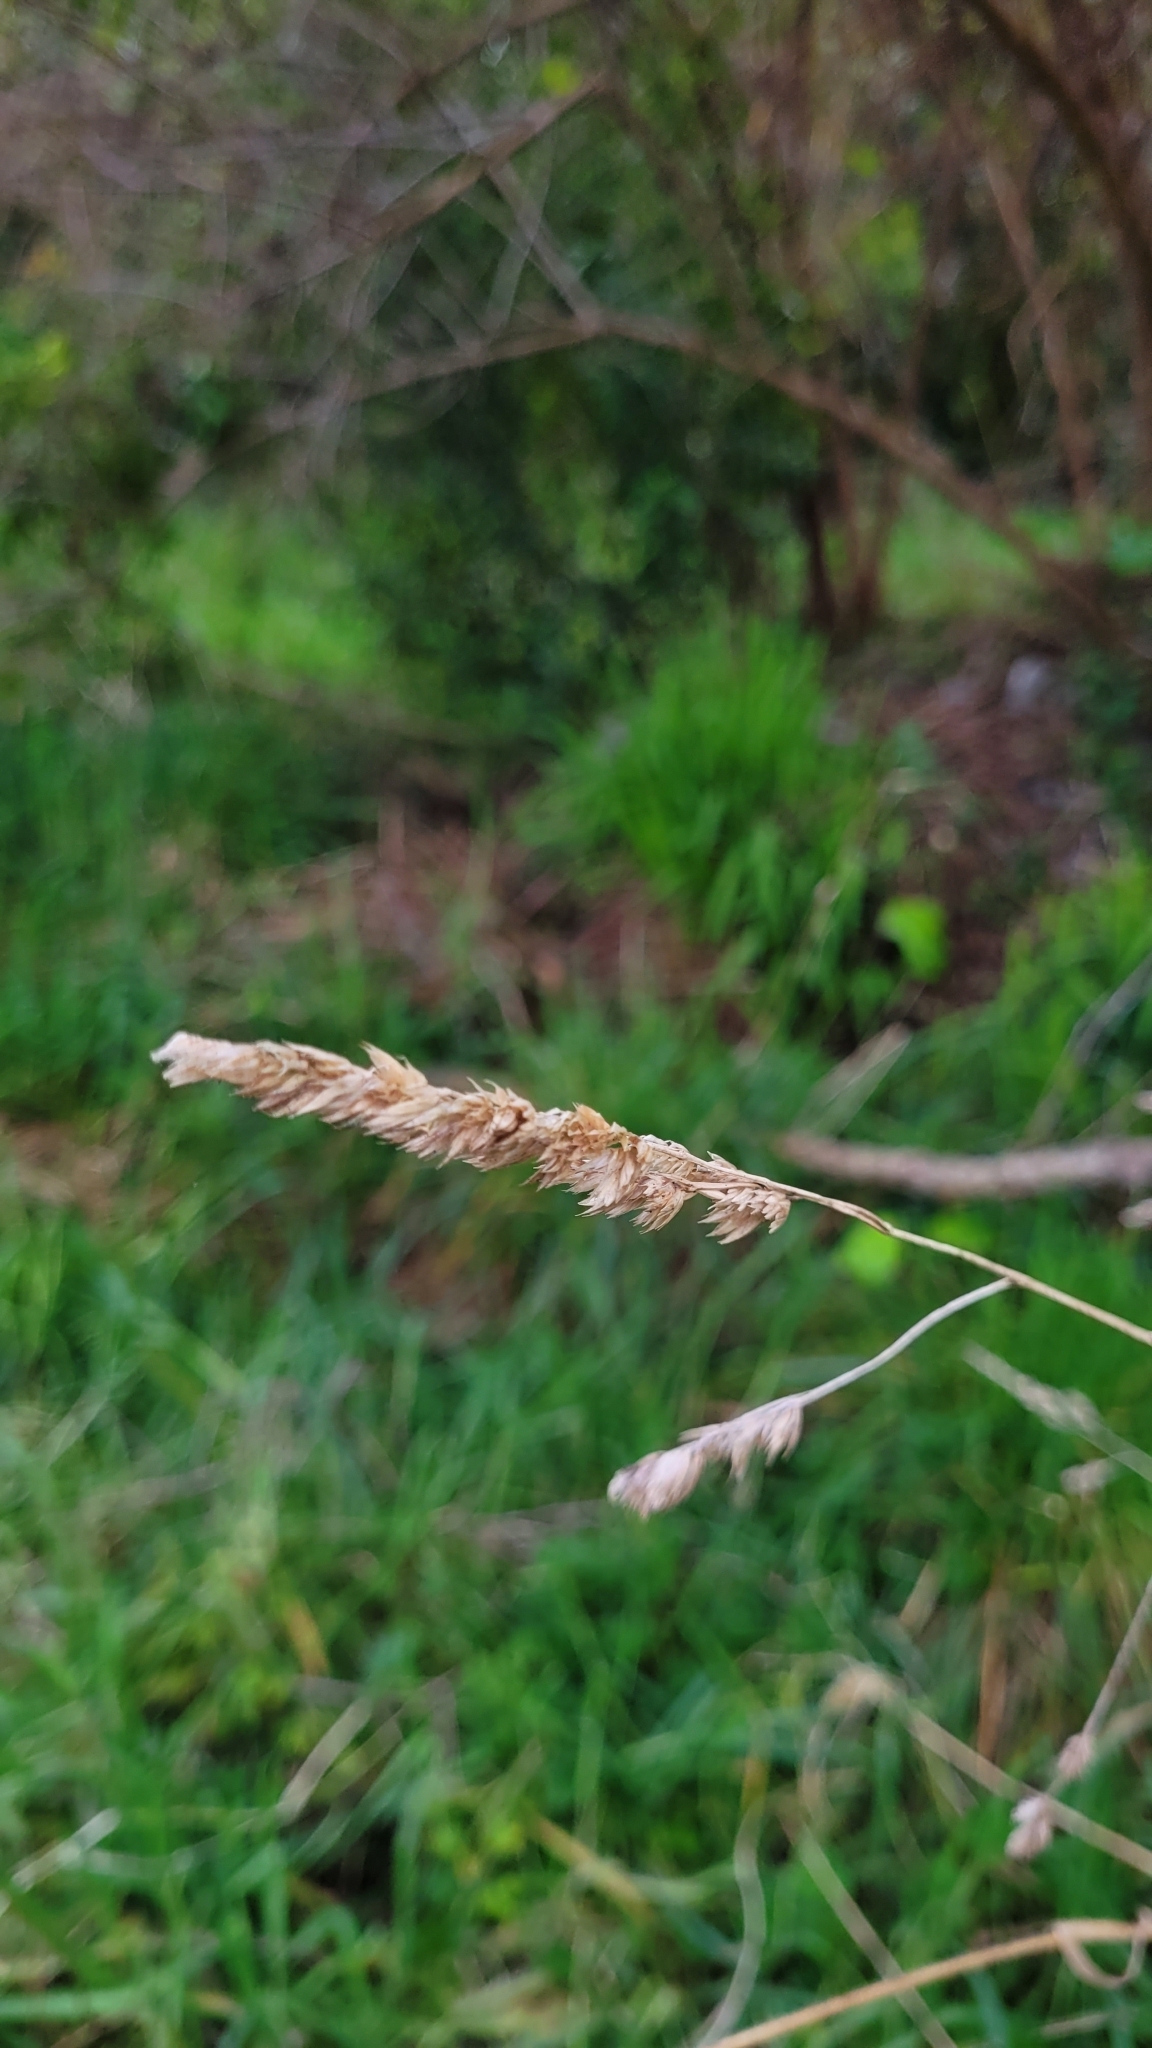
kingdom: Plantae
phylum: Tracheophyta
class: Liliopsida
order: Poales
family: Poaceae
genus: Dactylis
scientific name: Dactylis glomerata
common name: Orchardgrass
